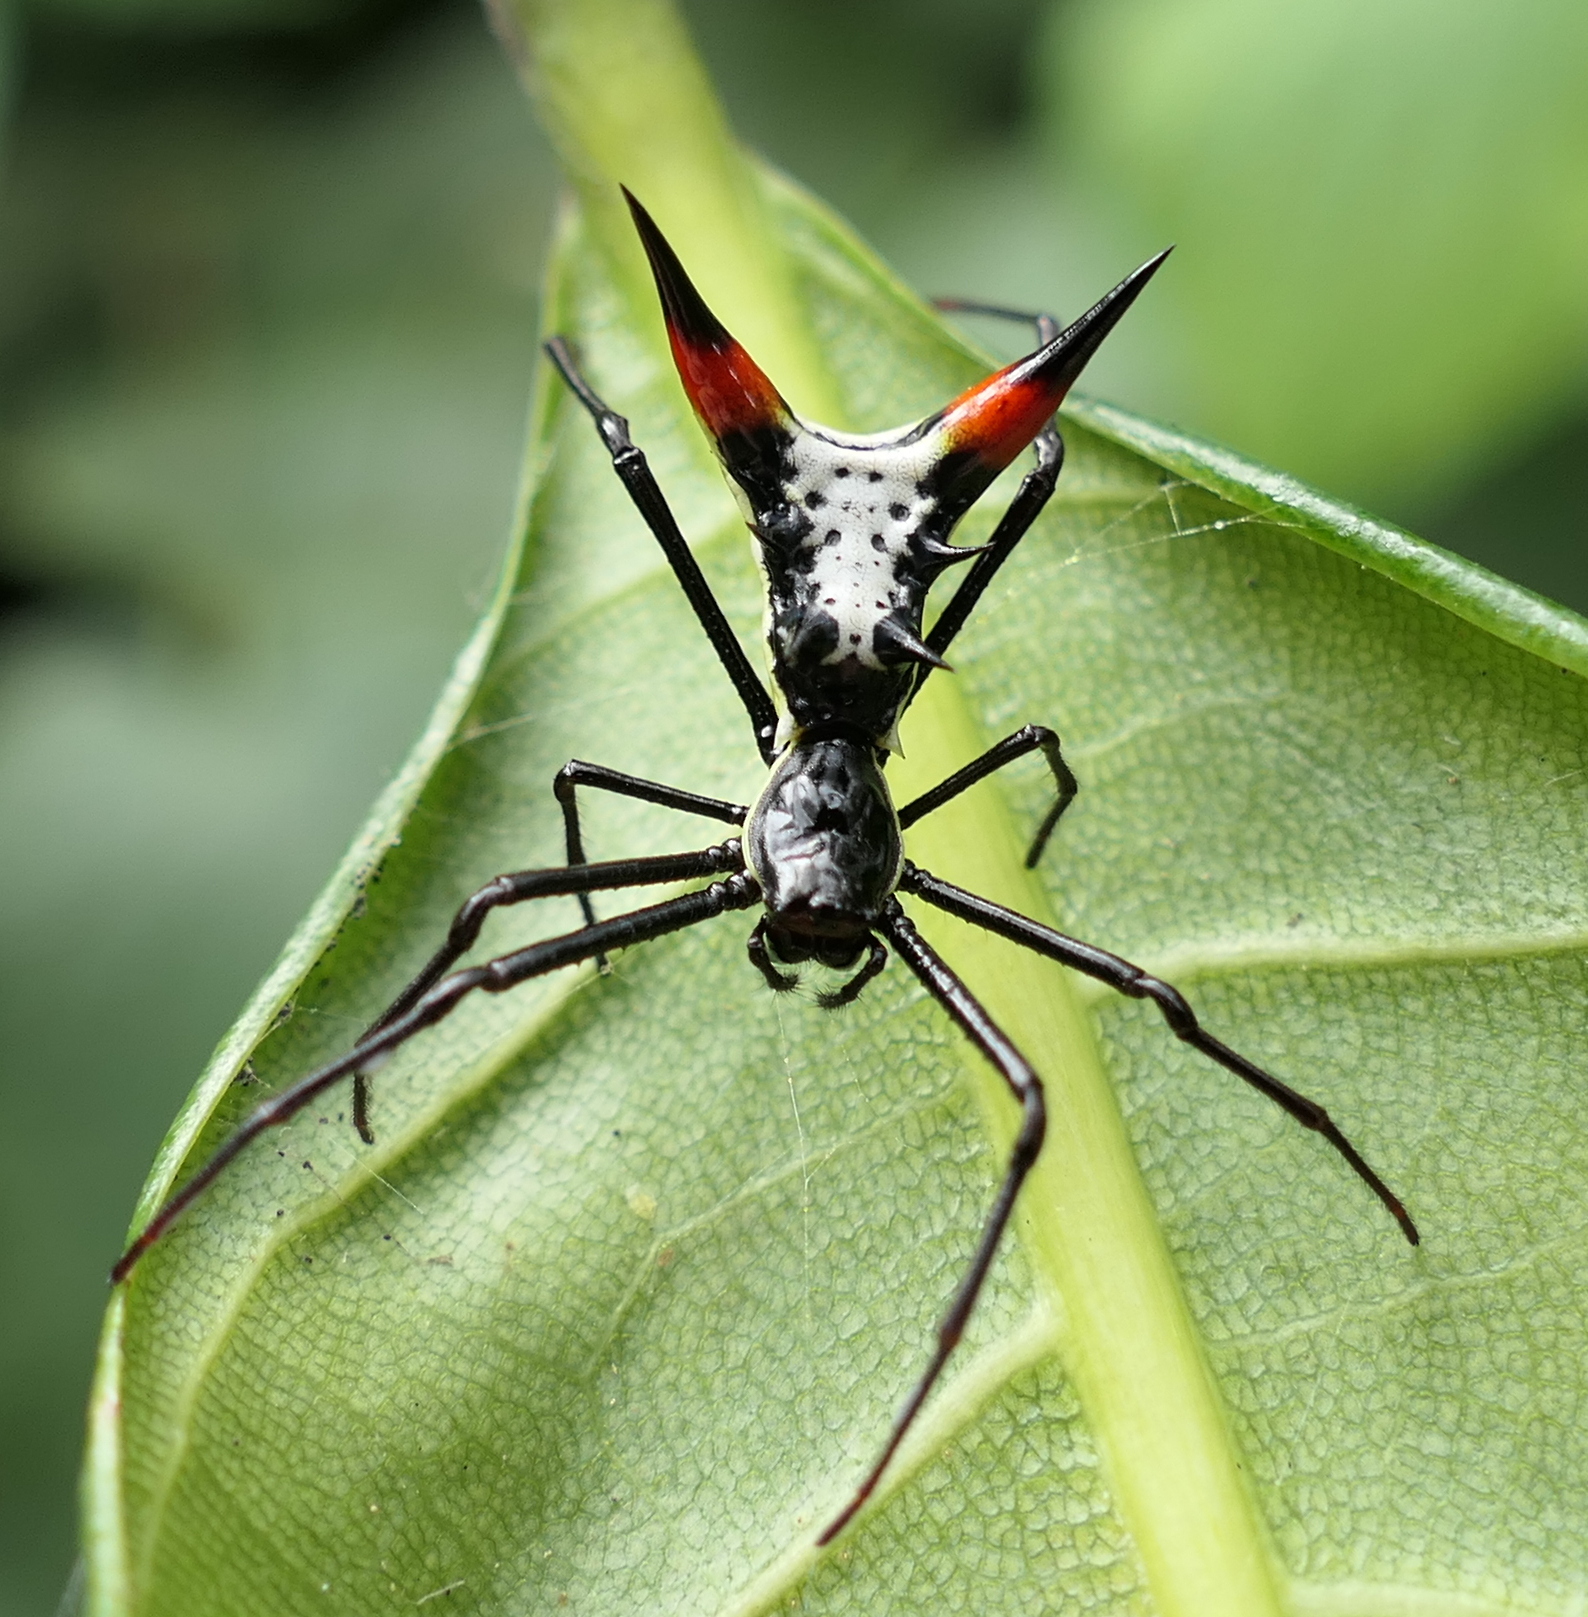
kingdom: Animalia
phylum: Arthropoda
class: Arachnida
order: Araneae
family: Araneidae
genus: Micrathena
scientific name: Micrathena schreibersi
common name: Orb weavers
